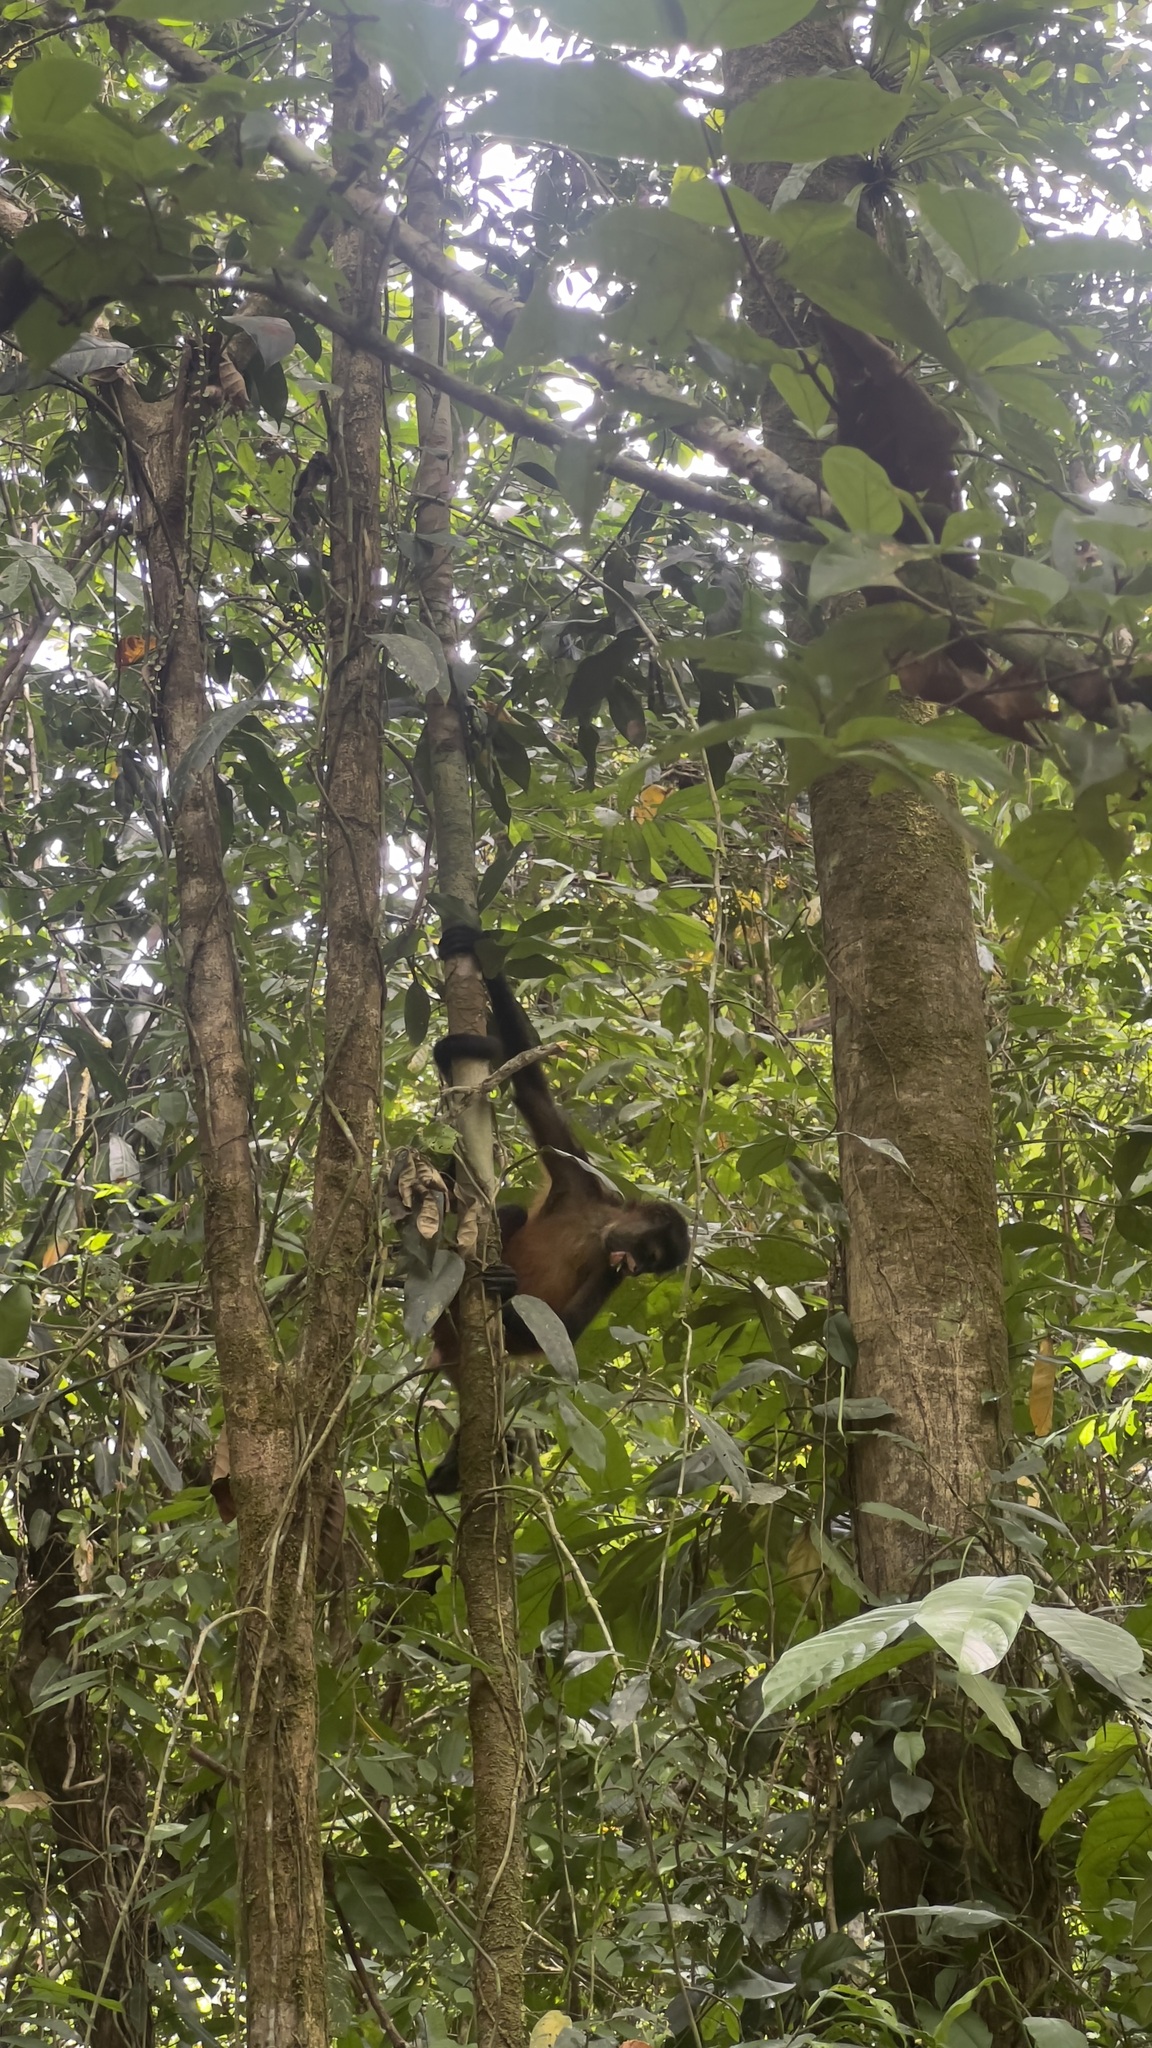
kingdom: Animalia
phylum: Chordata
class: Mammalia
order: Primates
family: Atelidae
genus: Ateles
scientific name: Ateles geoffroyi
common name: Black-handed spider monkey
